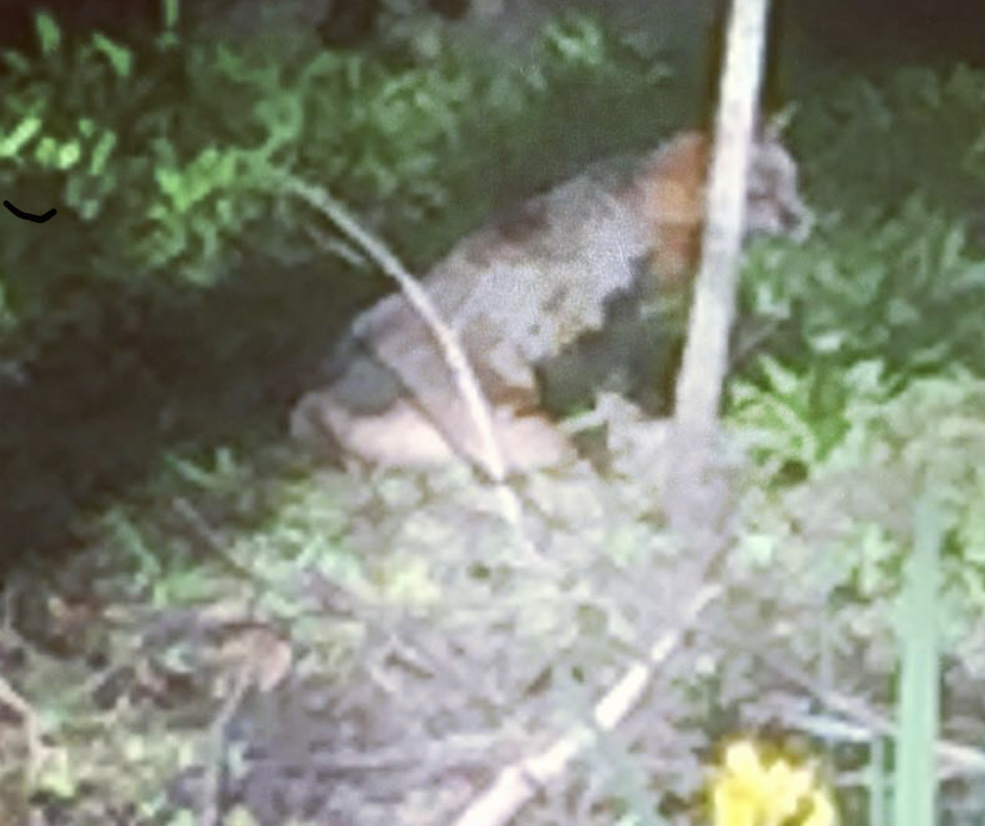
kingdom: Animalia
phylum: Chordata
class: Mammalia
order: Carnivora
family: Canidae
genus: Urocyon
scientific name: Urocyon cinereoargenteus
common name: Gray fox
